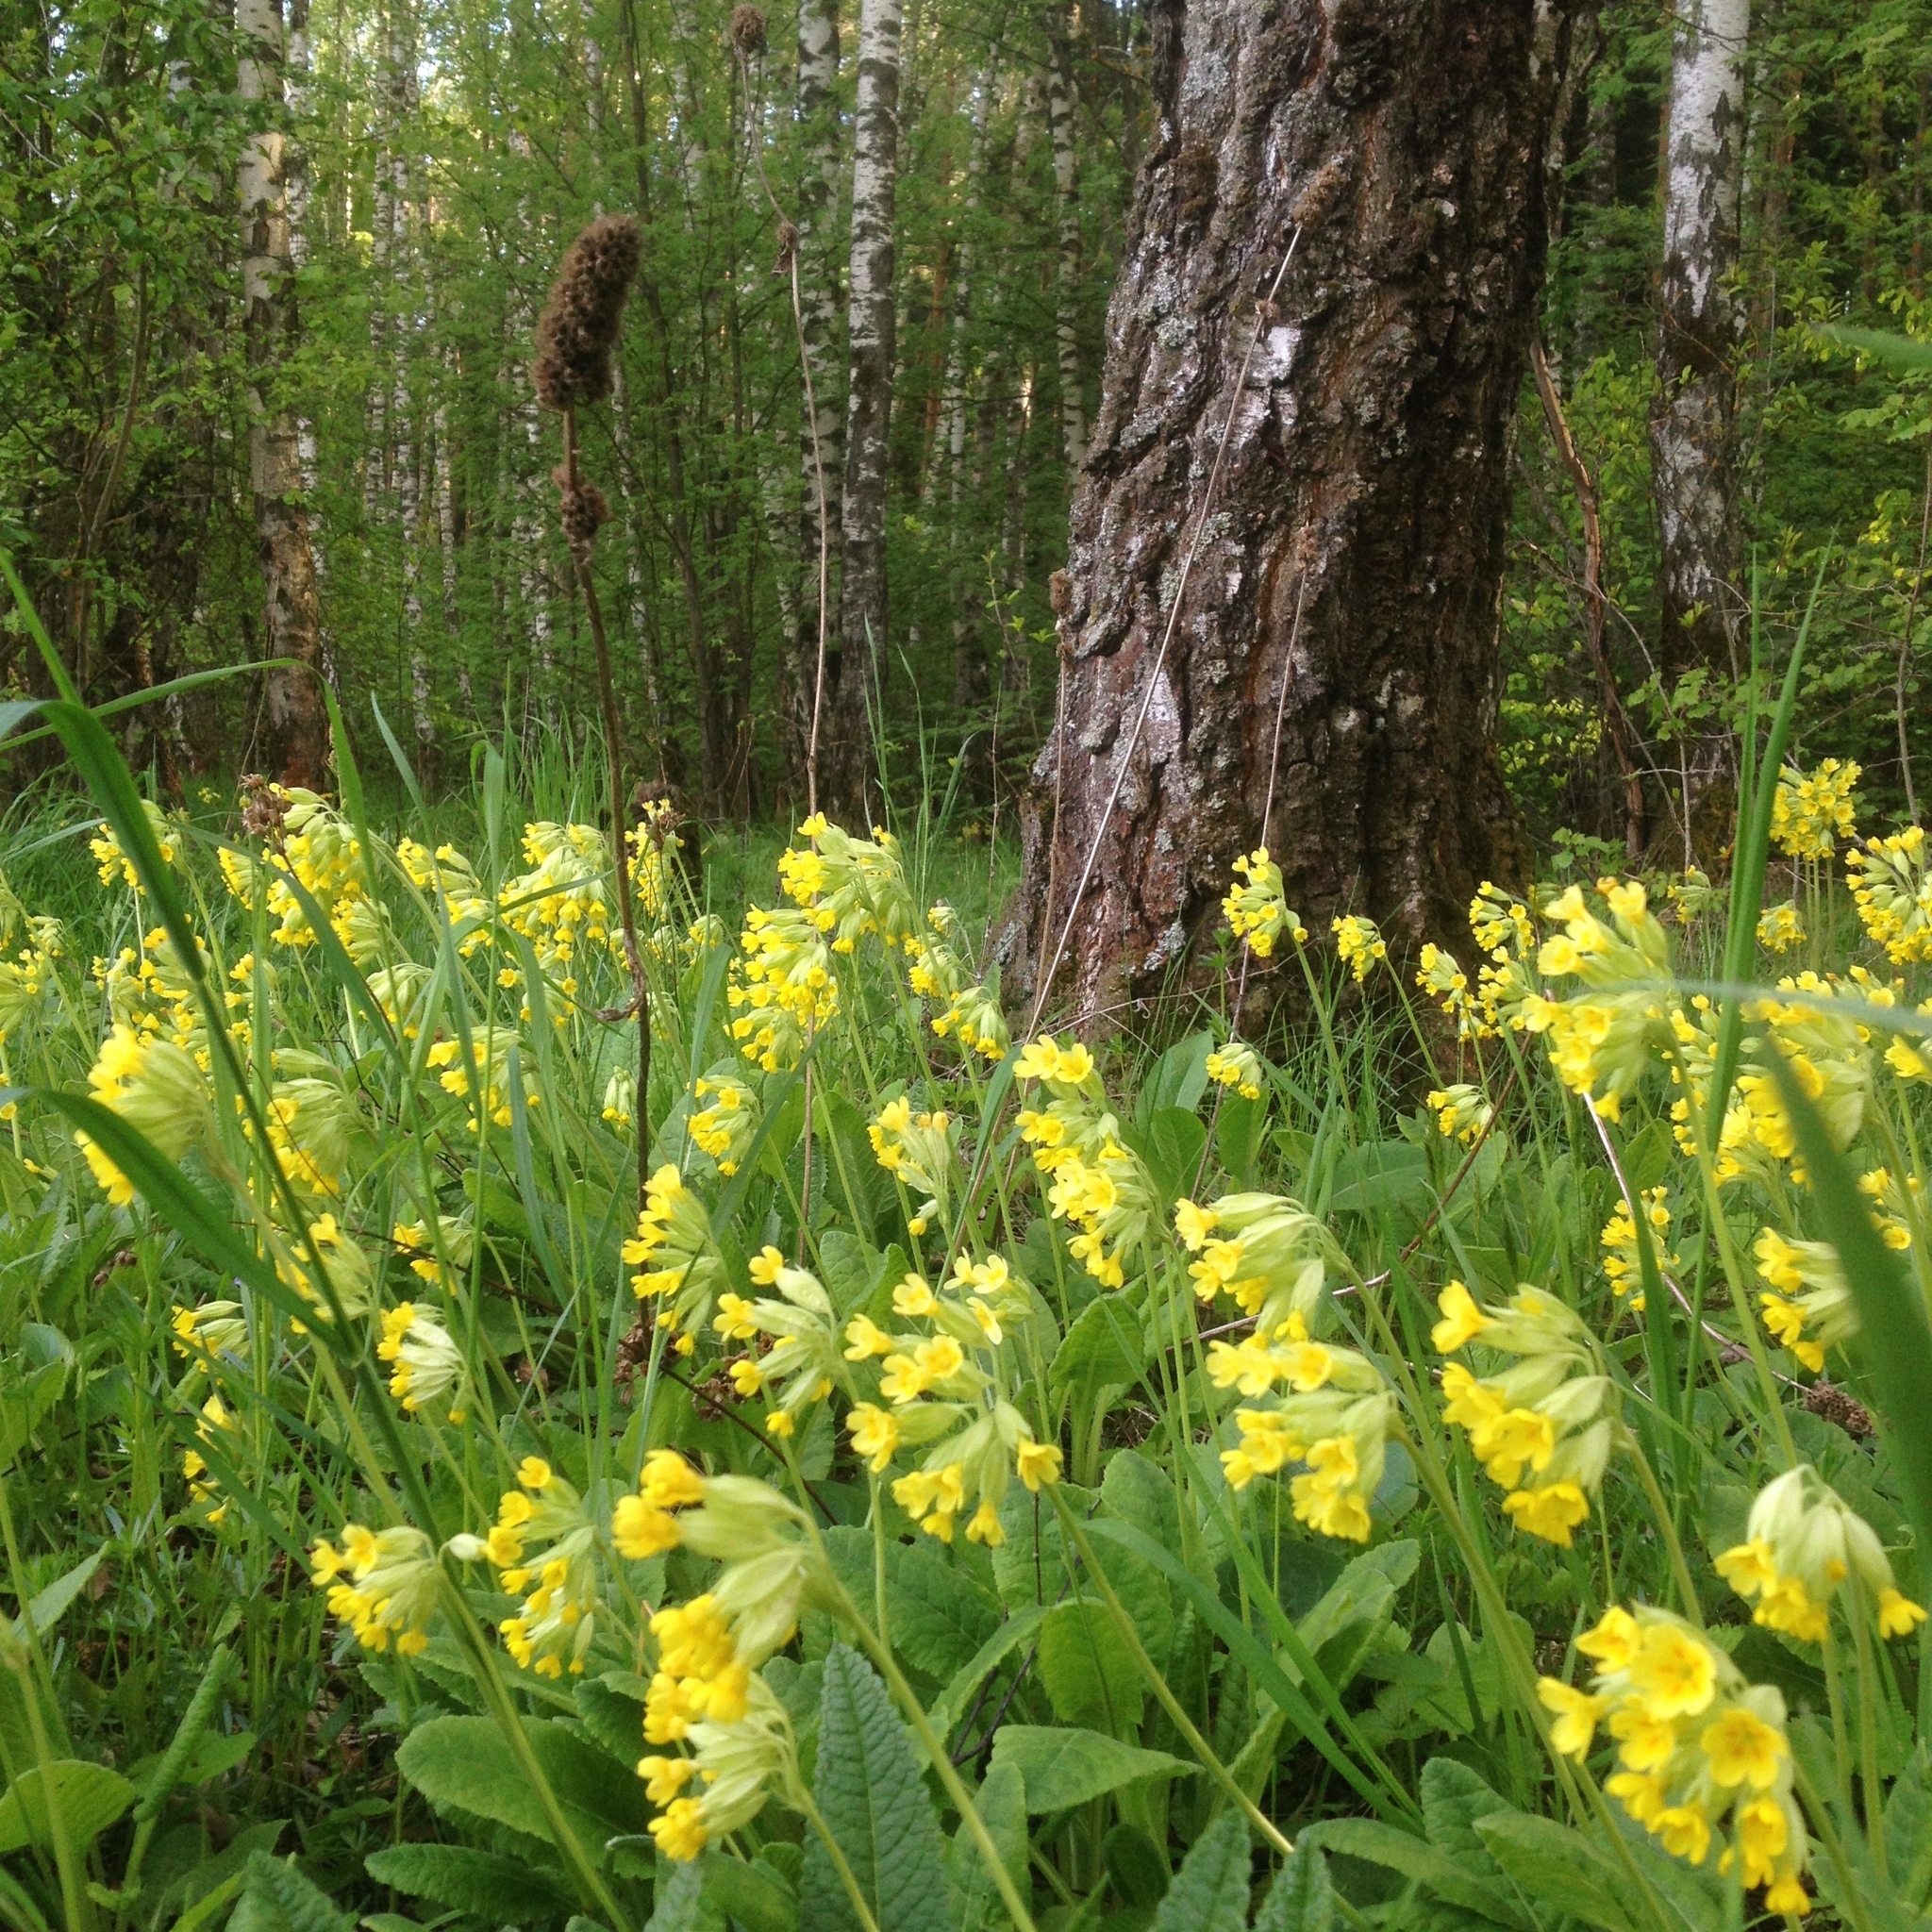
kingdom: Plantae
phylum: Tracheophyta
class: Magnoliopsida
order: Ericales
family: Primulaceae
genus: Primula
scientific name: Primula veris
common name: Cowslip
